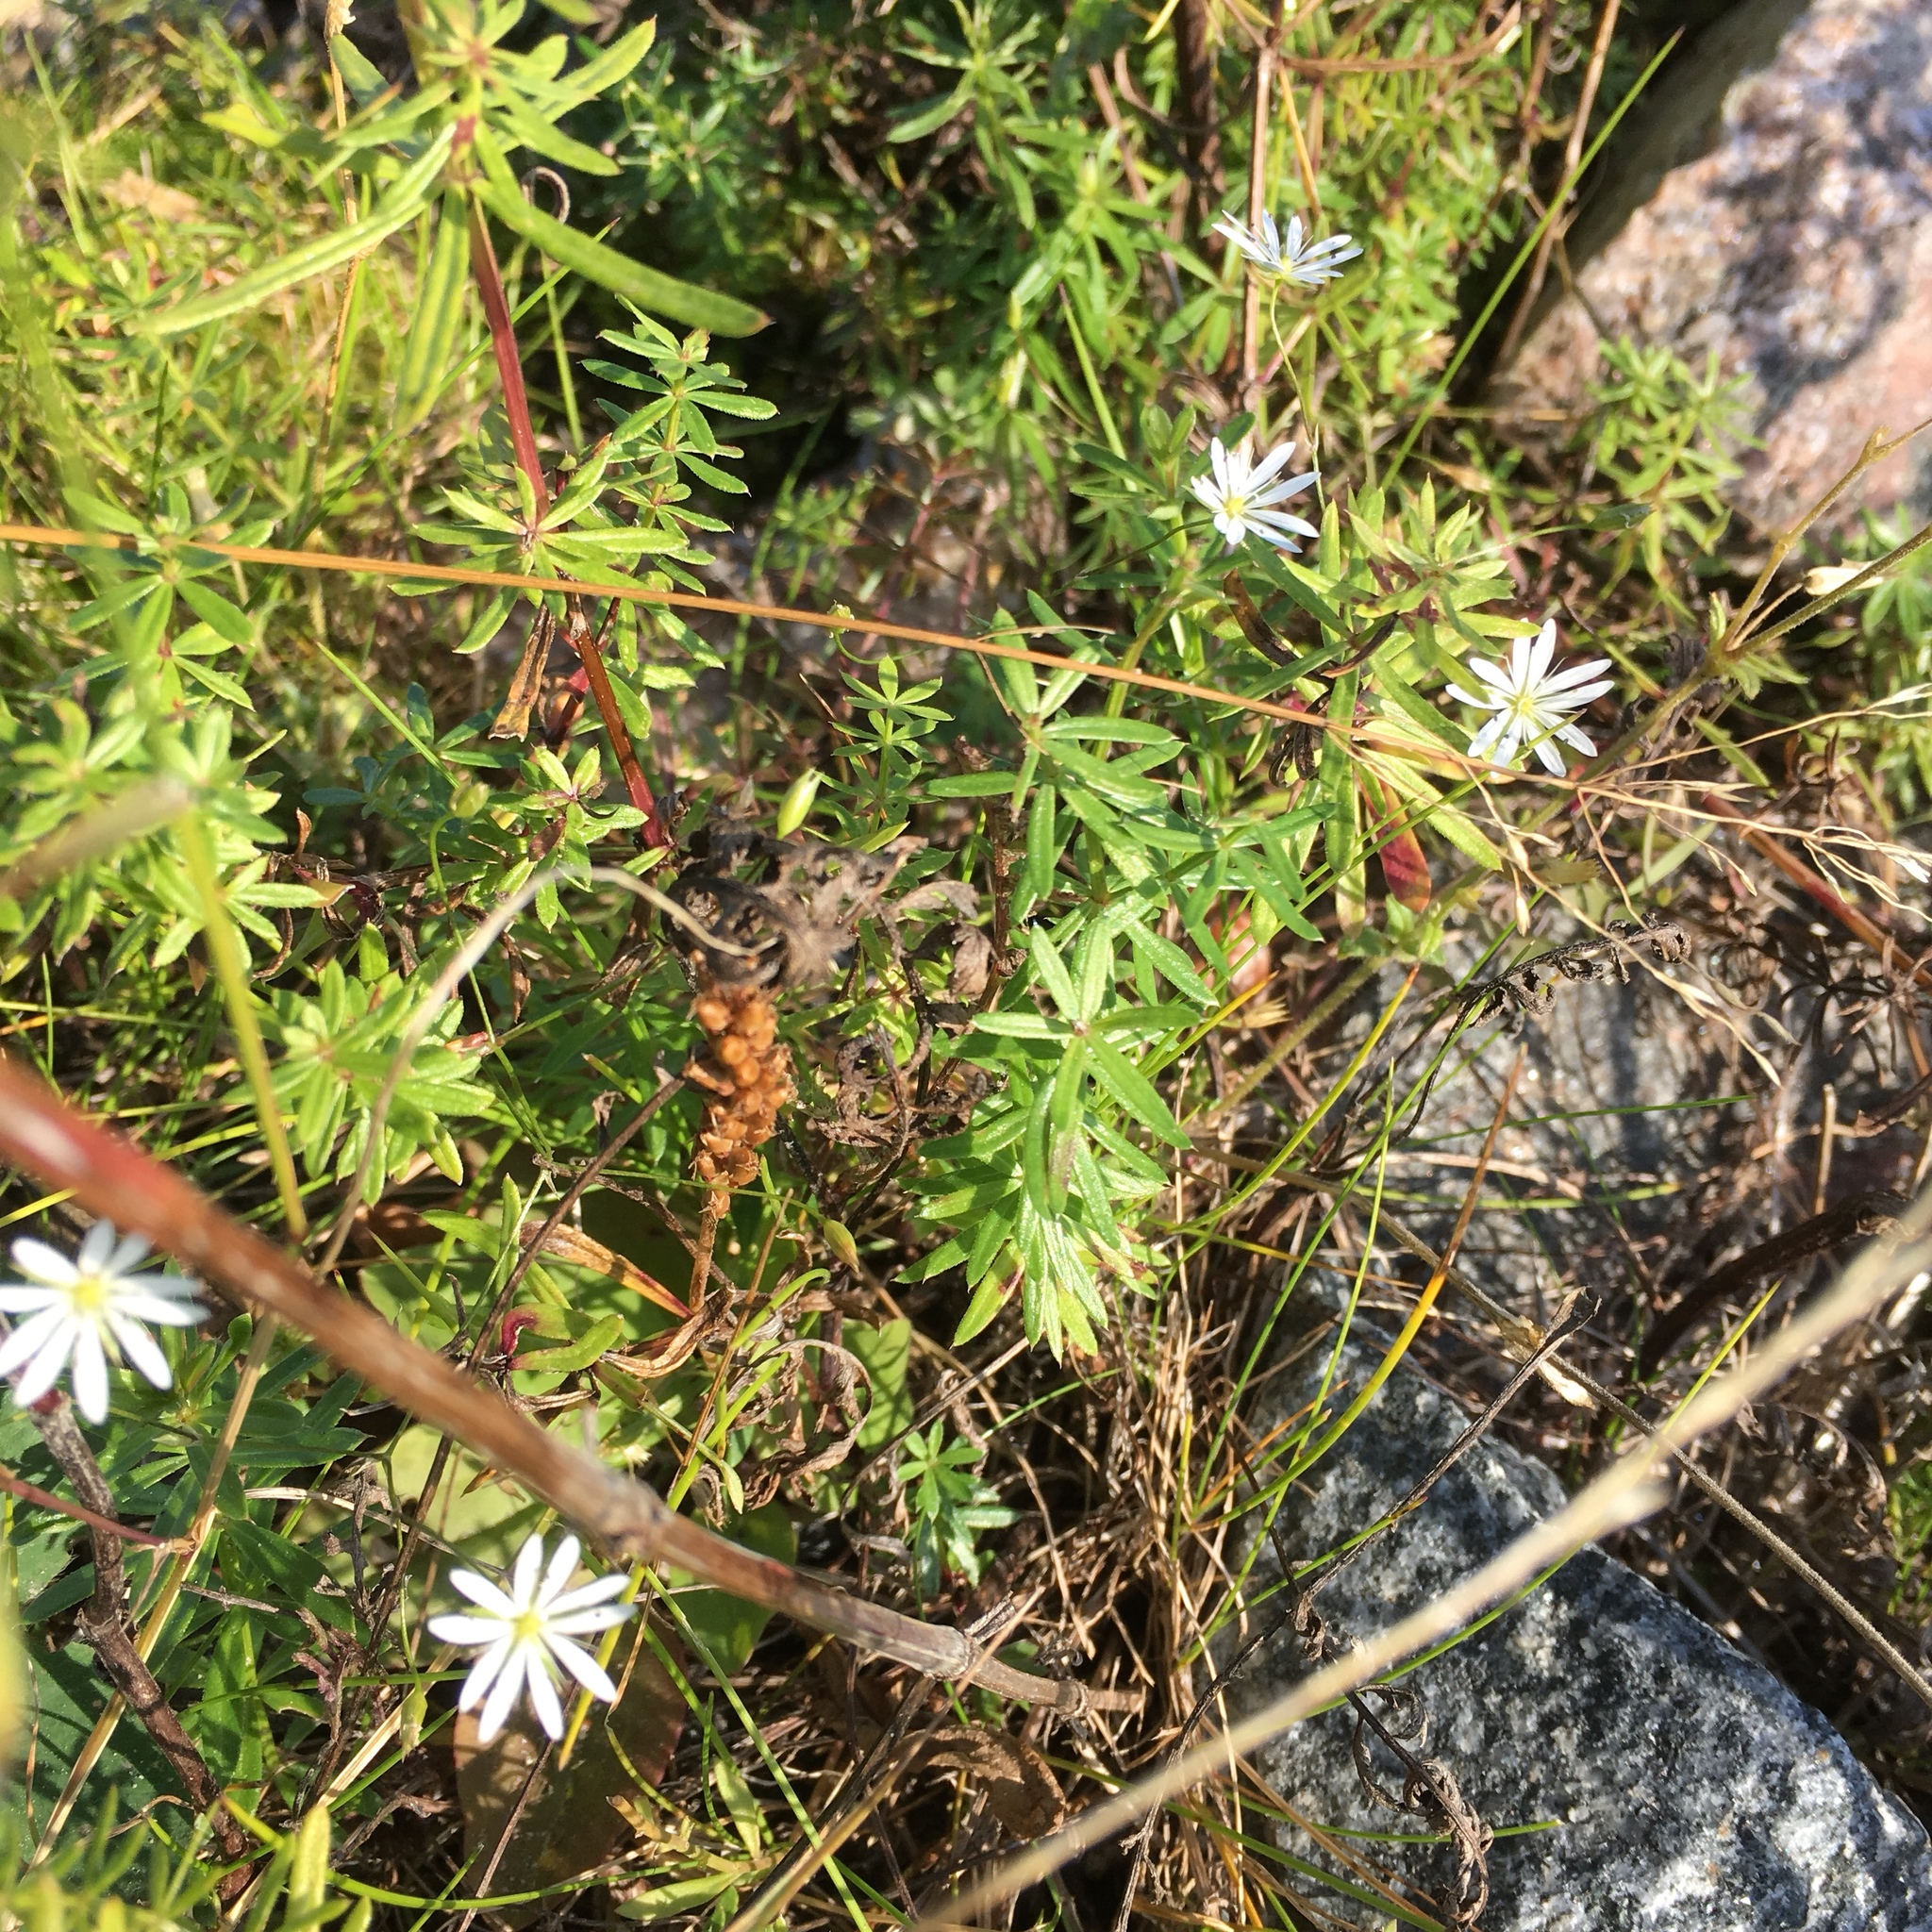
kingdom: Plantae
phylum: Tracheophyta
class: Magnoliopsida
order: Caryophyllales
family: Caryophyllaceae
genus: Stellaria
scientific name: Stellaria graminea
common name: Grass-like starwort
